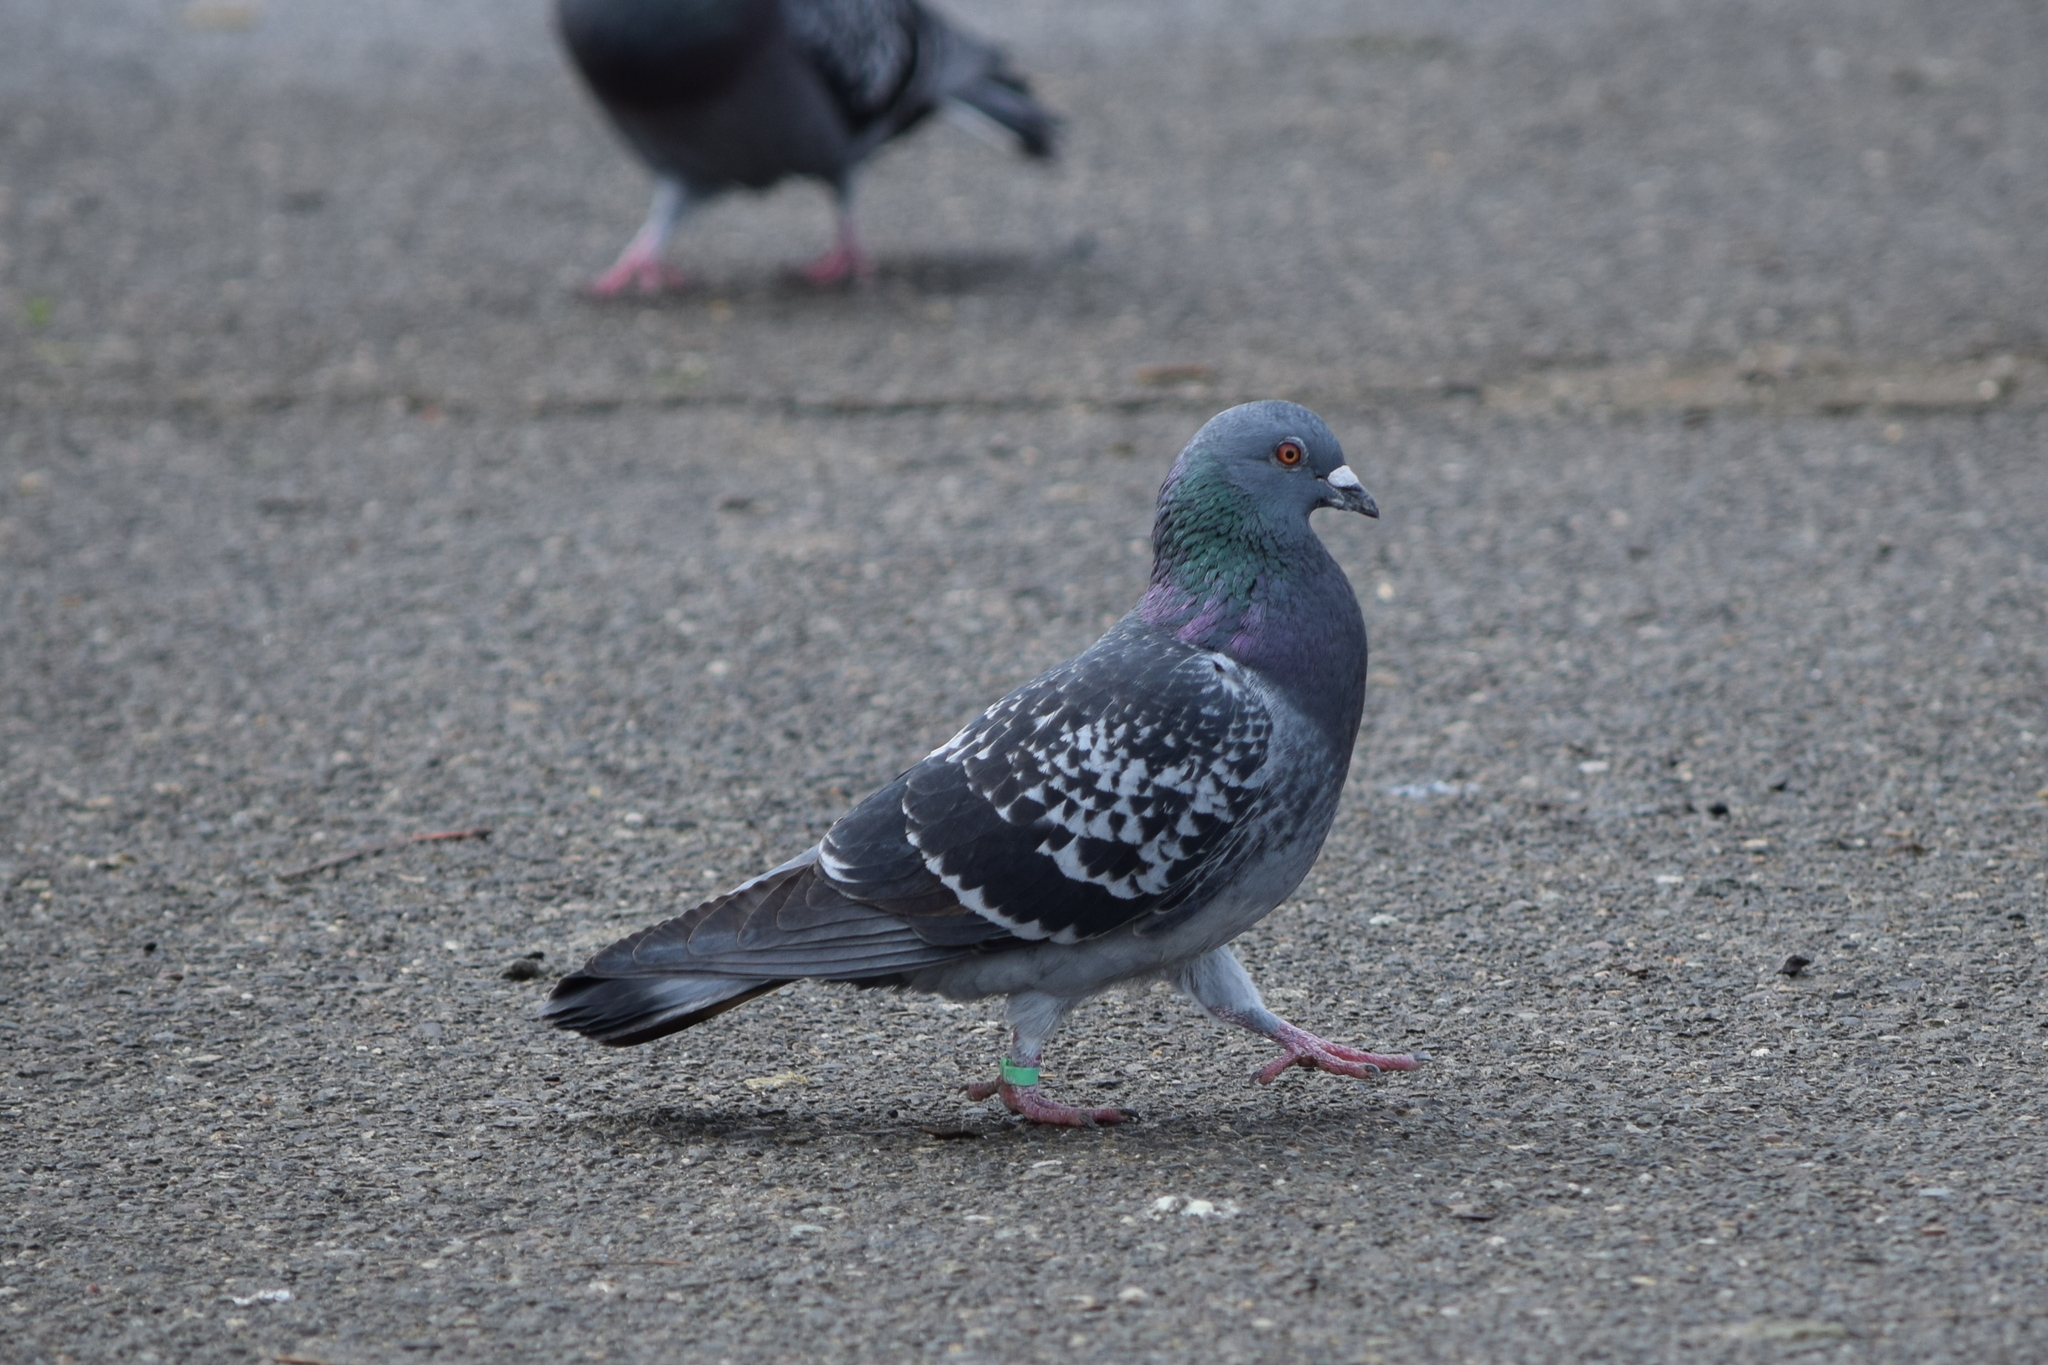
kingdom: Animalia
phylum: Chordata
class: Aves
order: Columbiformes
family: Columbidae
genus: Columba
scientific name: Columba livia
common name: Rock pigeon
